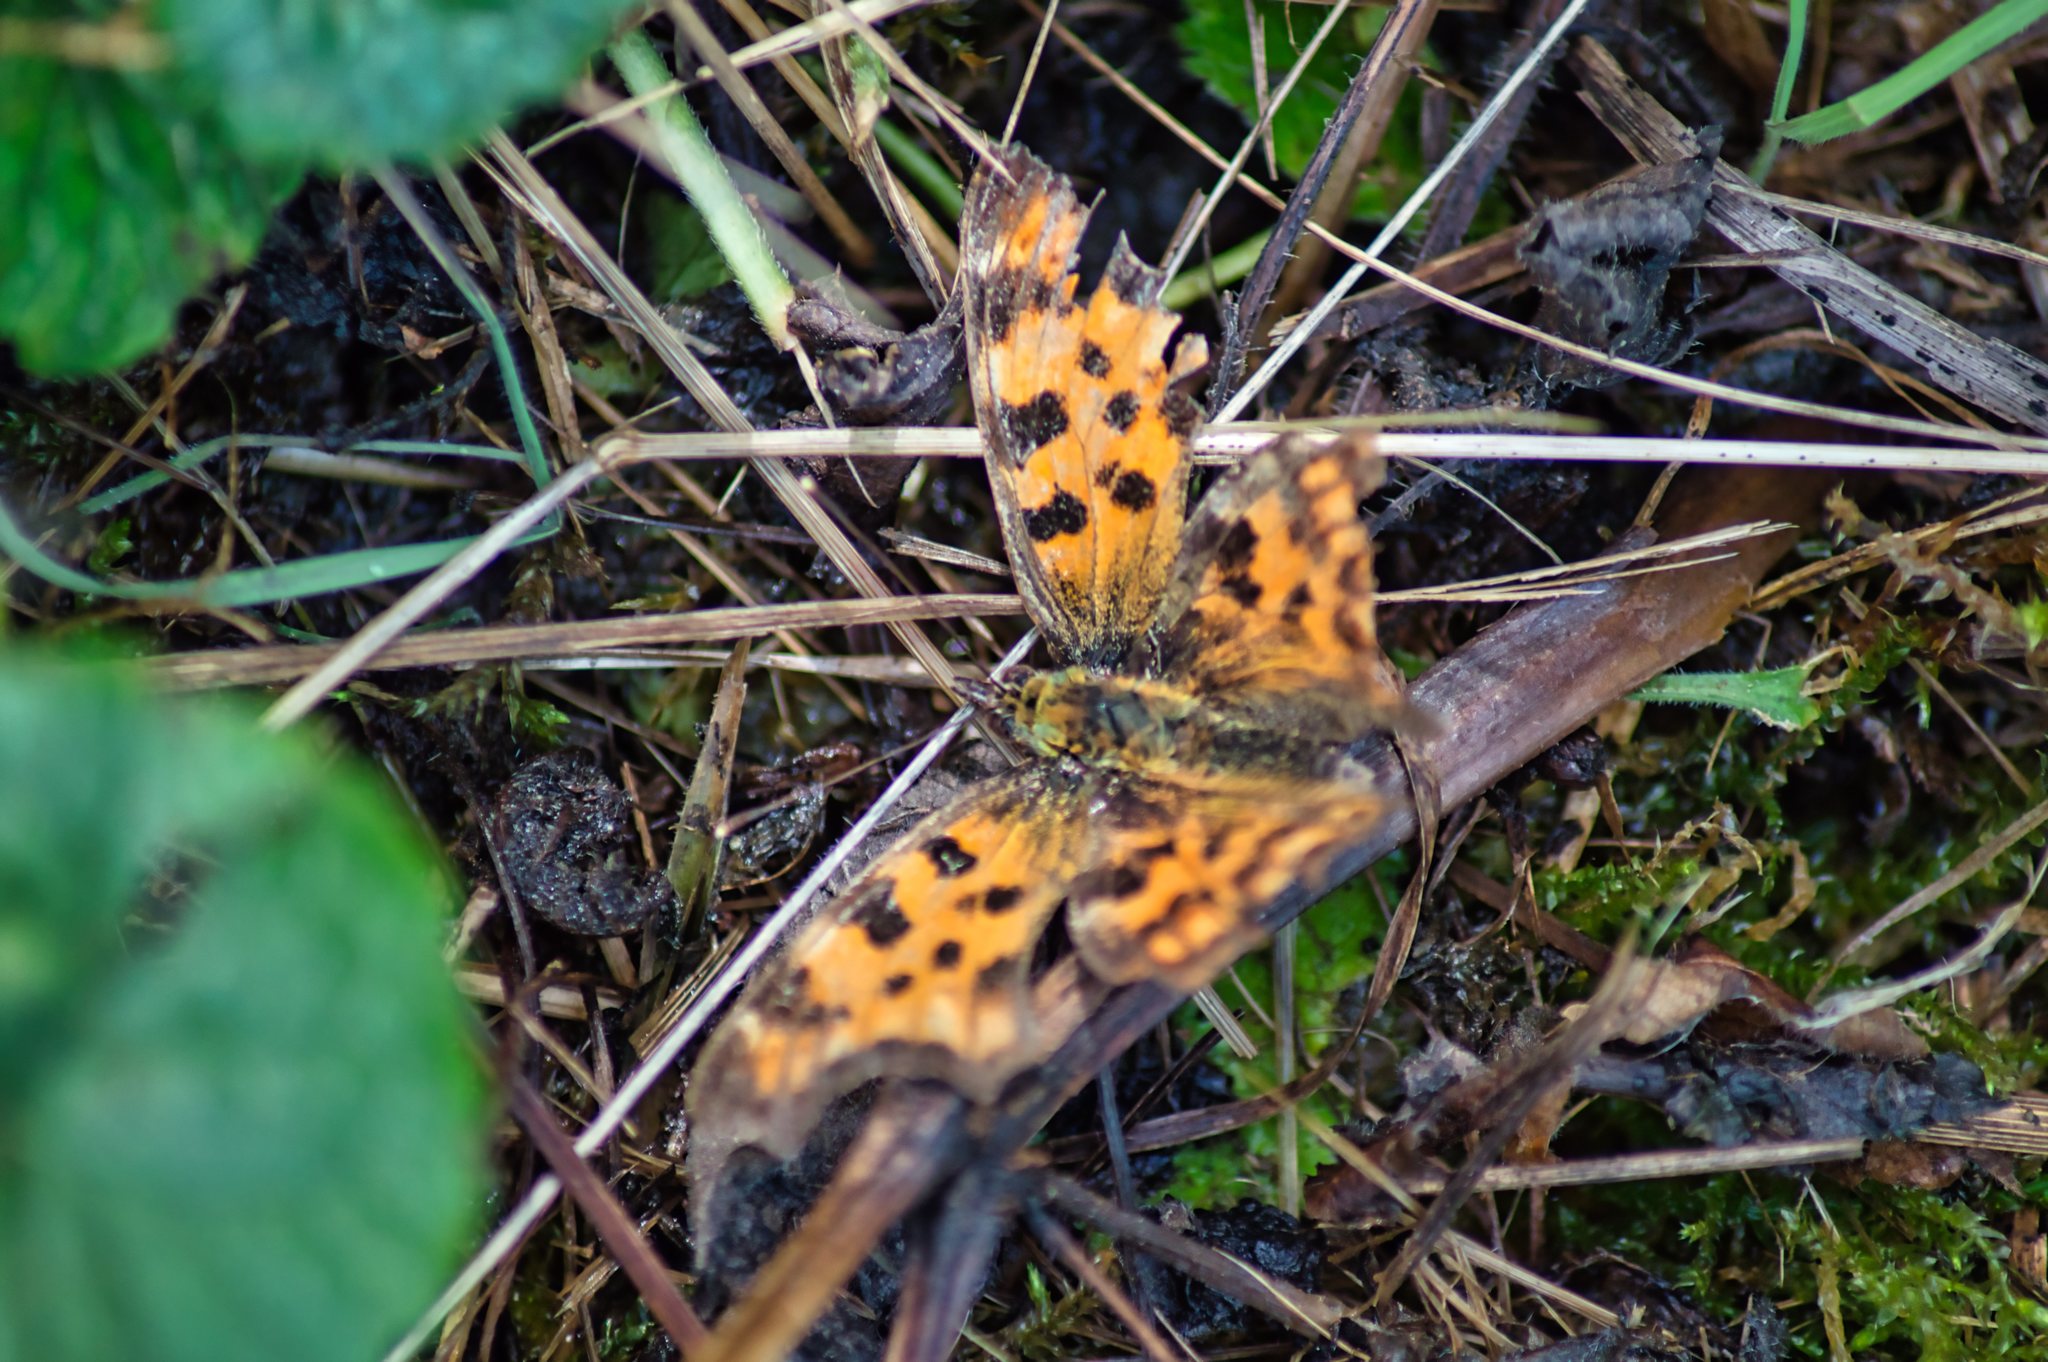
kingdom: Animalia
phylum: Arthropoda
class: Insecta
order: Lepidoptera
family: Nymphalidae
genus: Polygonia
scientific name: Polygonia c-album
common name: Comma
